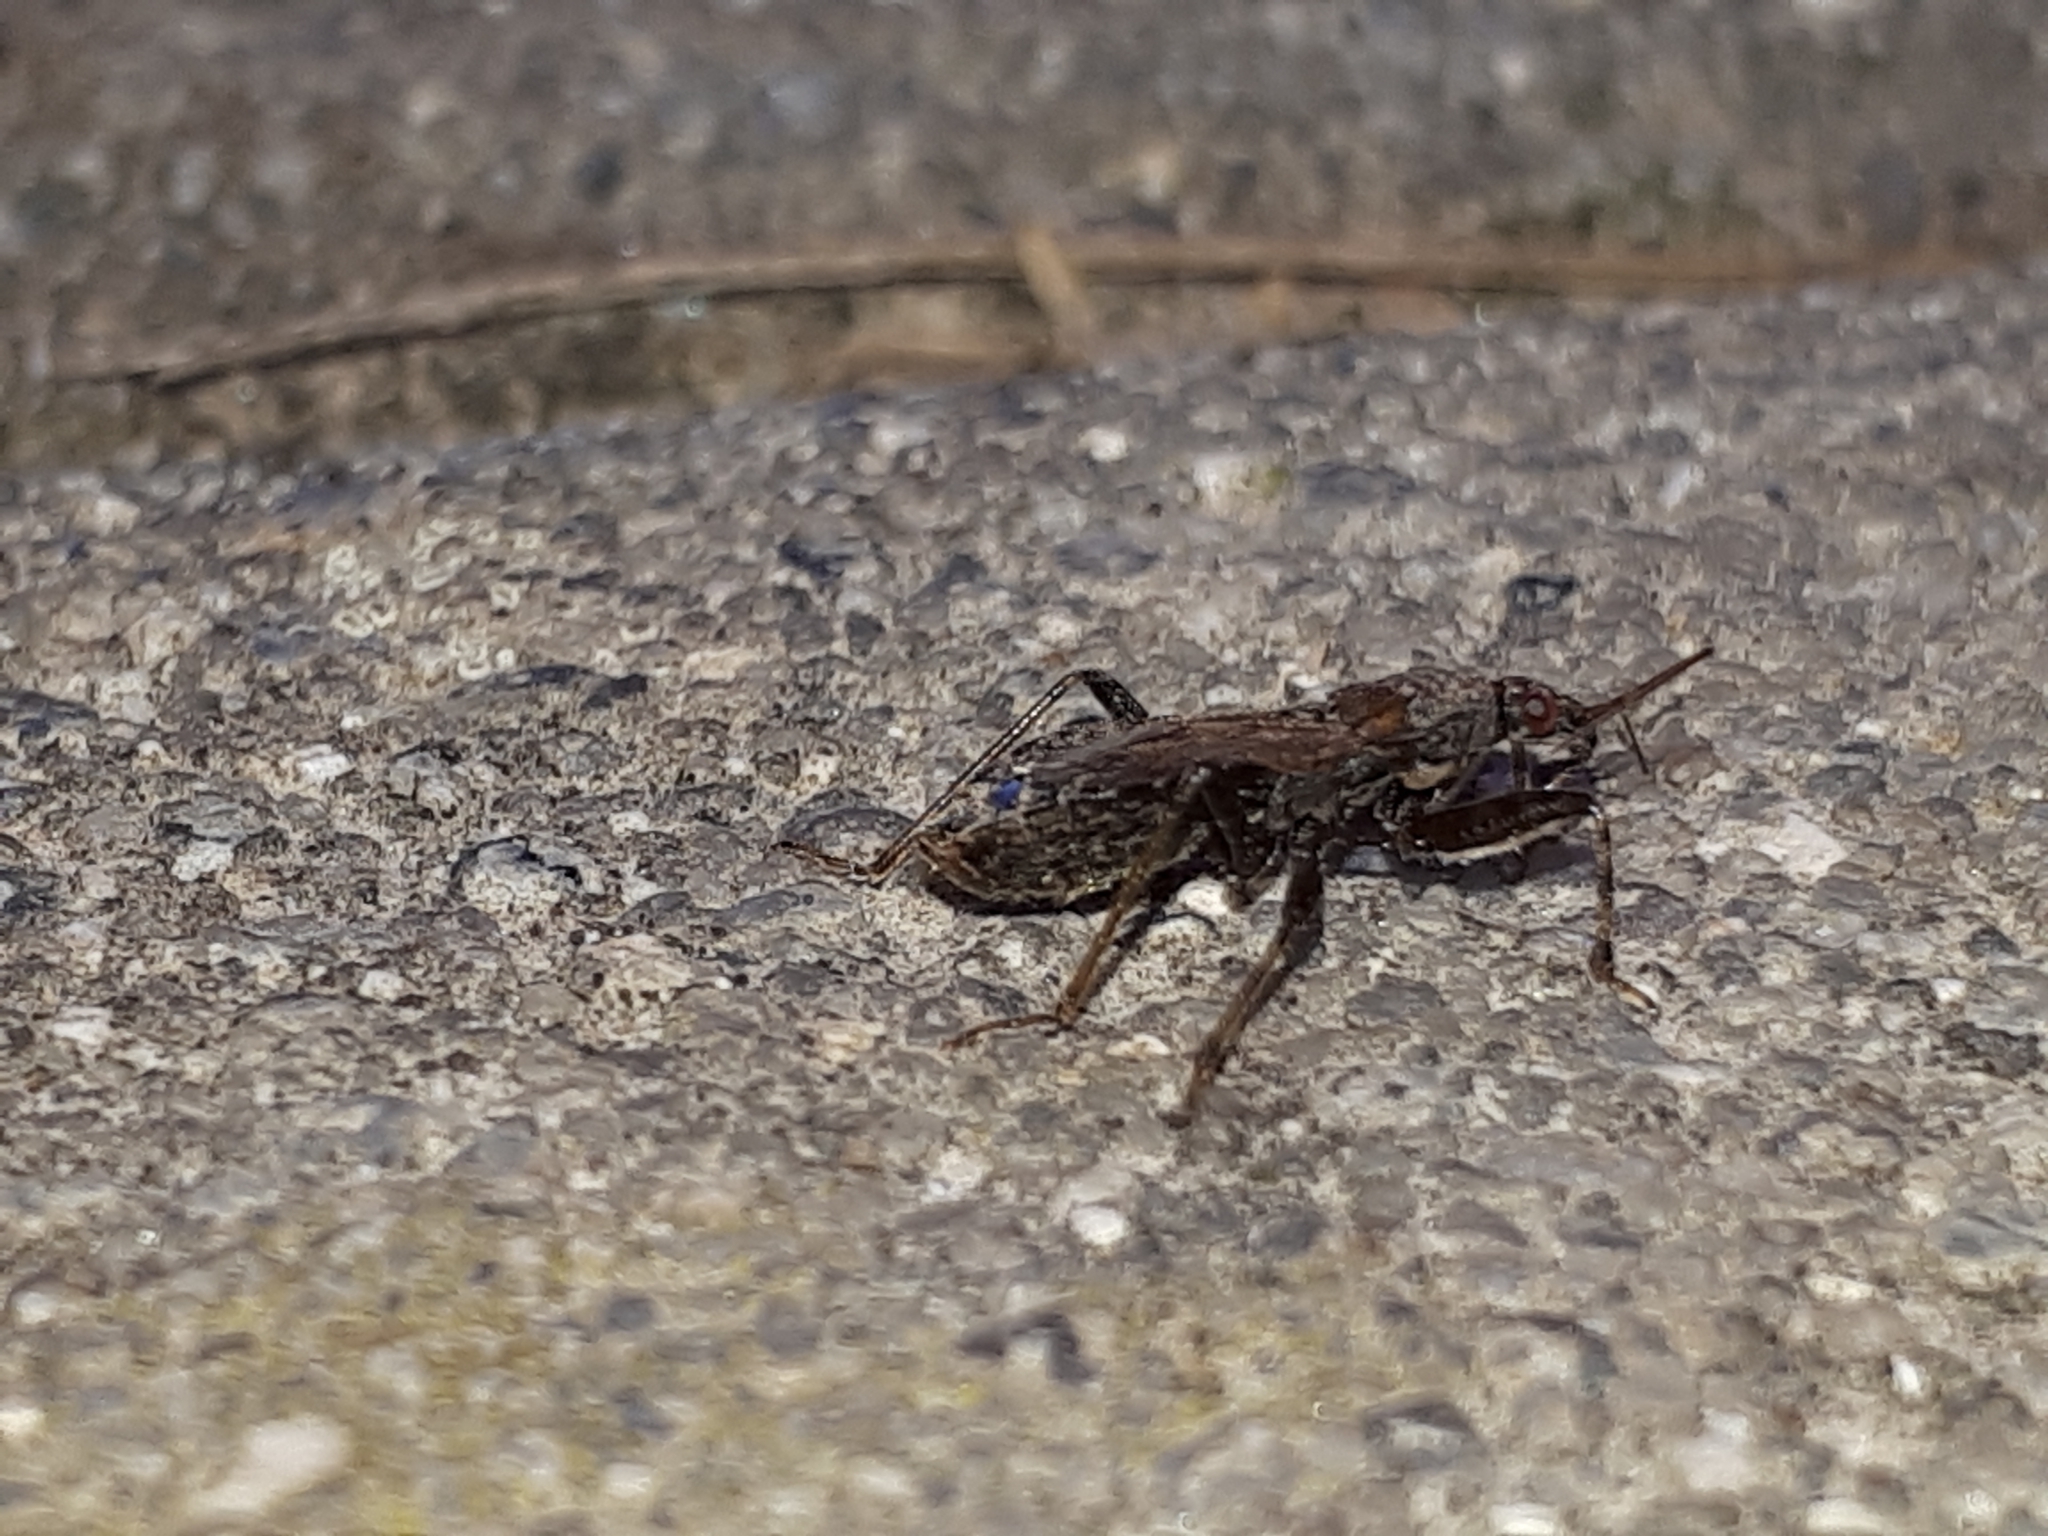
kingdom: Animalia
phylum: Arthropoda
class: Insecta
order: Hemiptera
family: Nabidae
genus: Himacerus
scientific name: Himacerus mirmicoides
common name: Ant damsel bug
